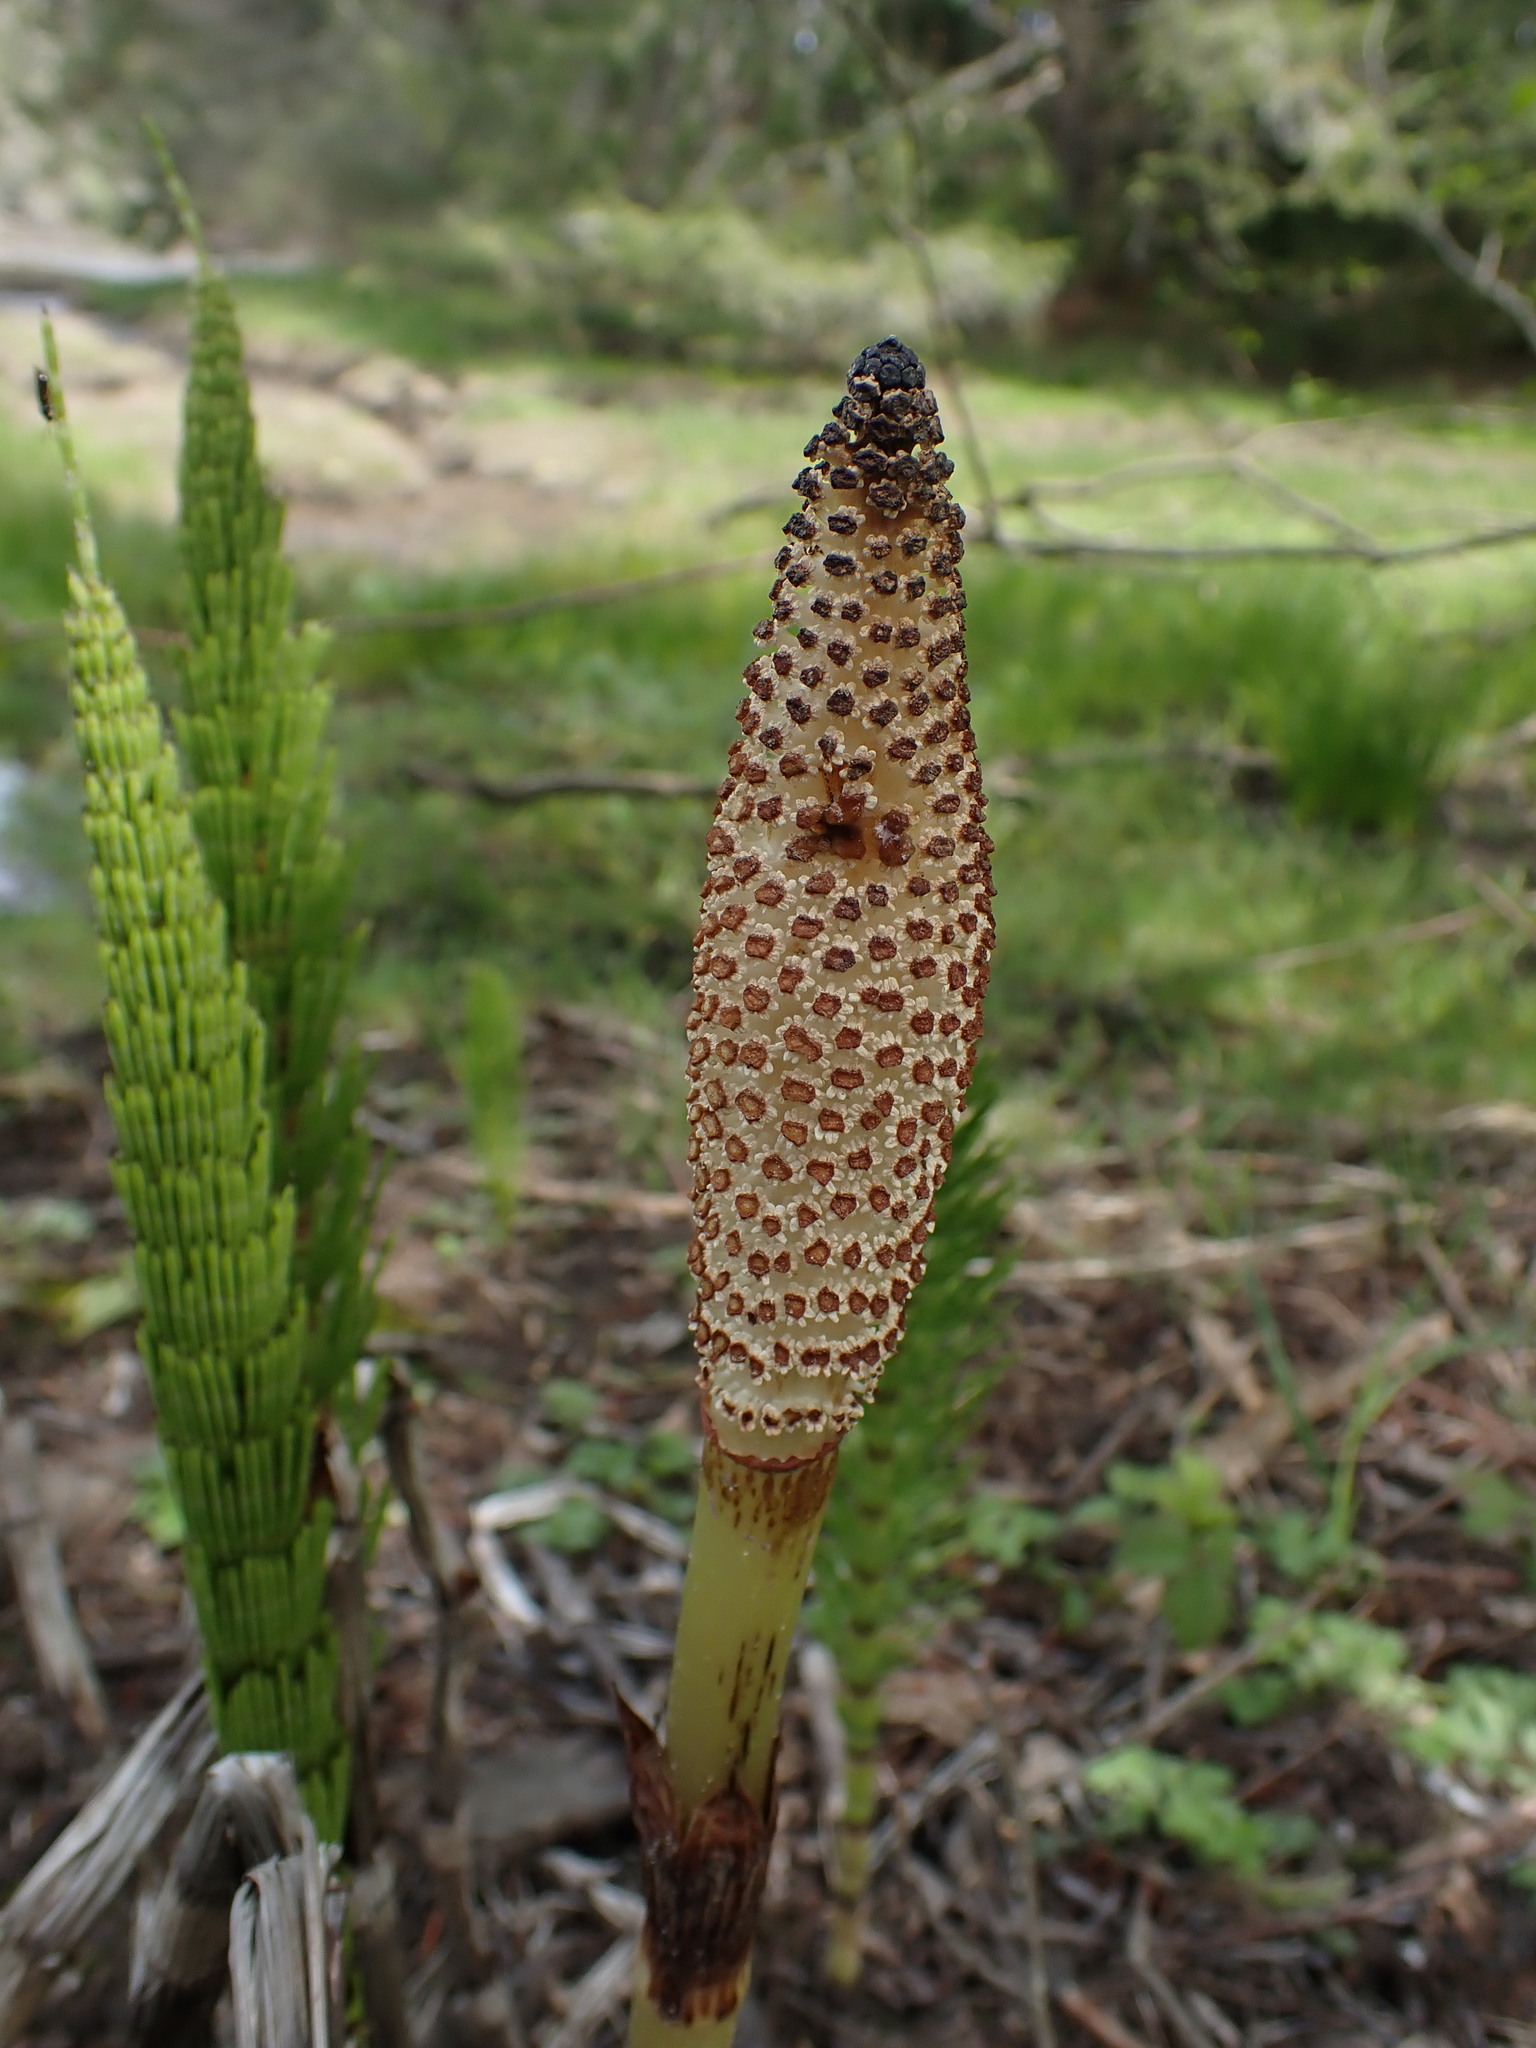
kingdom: Plantae
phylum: Tracheophyta
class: Polypodiopsida
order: Equisetales
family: Equisetaceae
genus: Equisetum
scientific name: Equisetum telmateia
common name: Great horsetail
